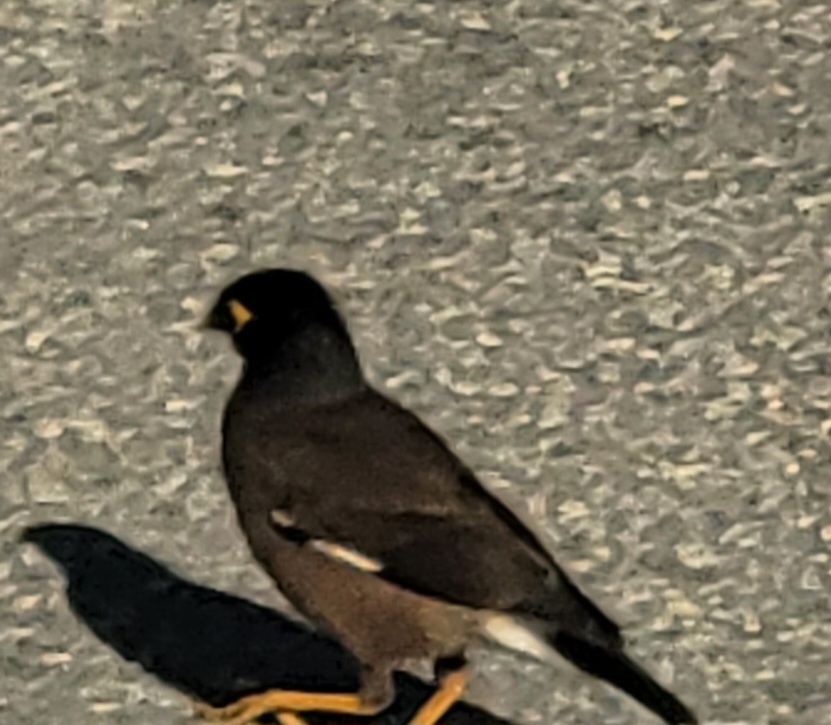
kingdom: Animalia
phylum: Chordata
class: Aves
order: Passeriformes
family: Sturnidae
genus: Acridotheres
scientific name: Acridotheres tristis
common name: Common myna
